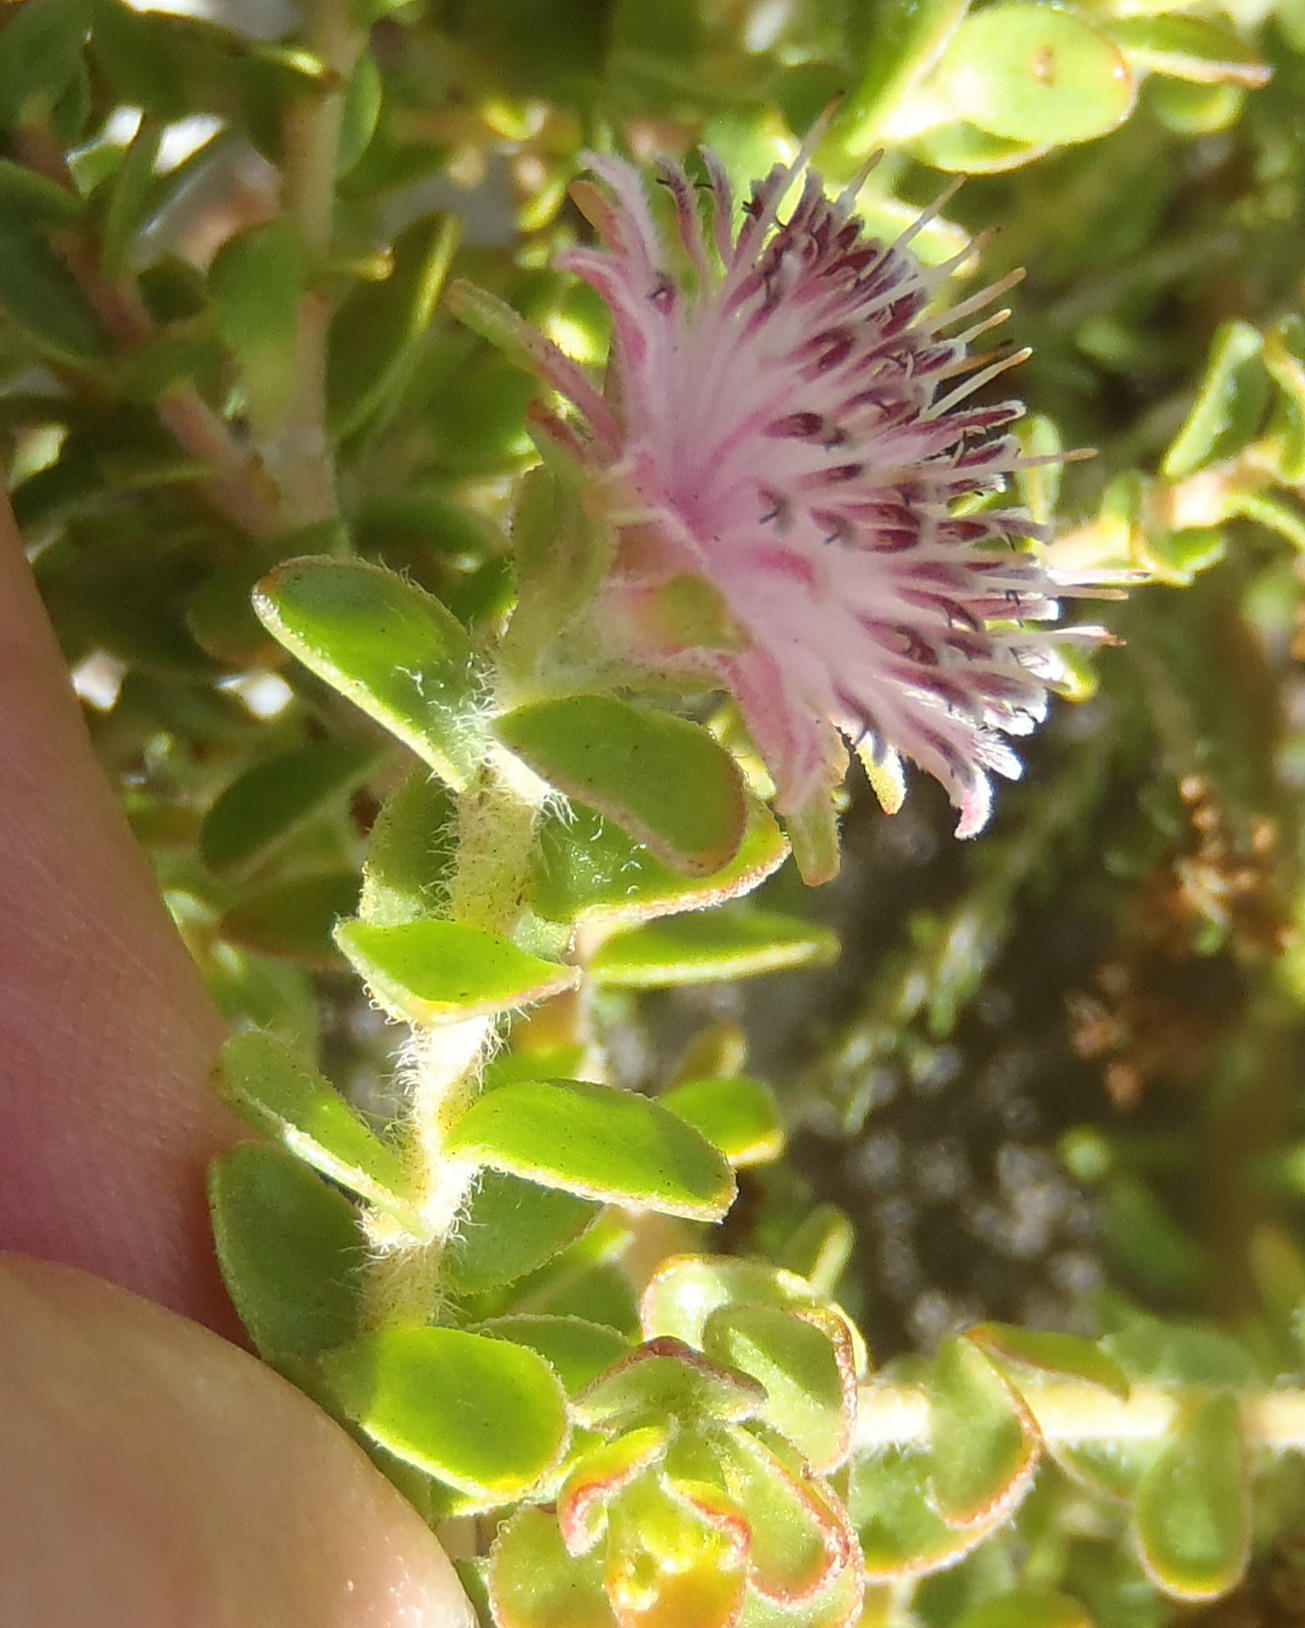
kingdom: Plantae
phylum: Tracheophyta
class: Magnoliopsida
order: Proteales
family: Proteaceae
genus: Diastella
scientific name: Diastella divaricata
